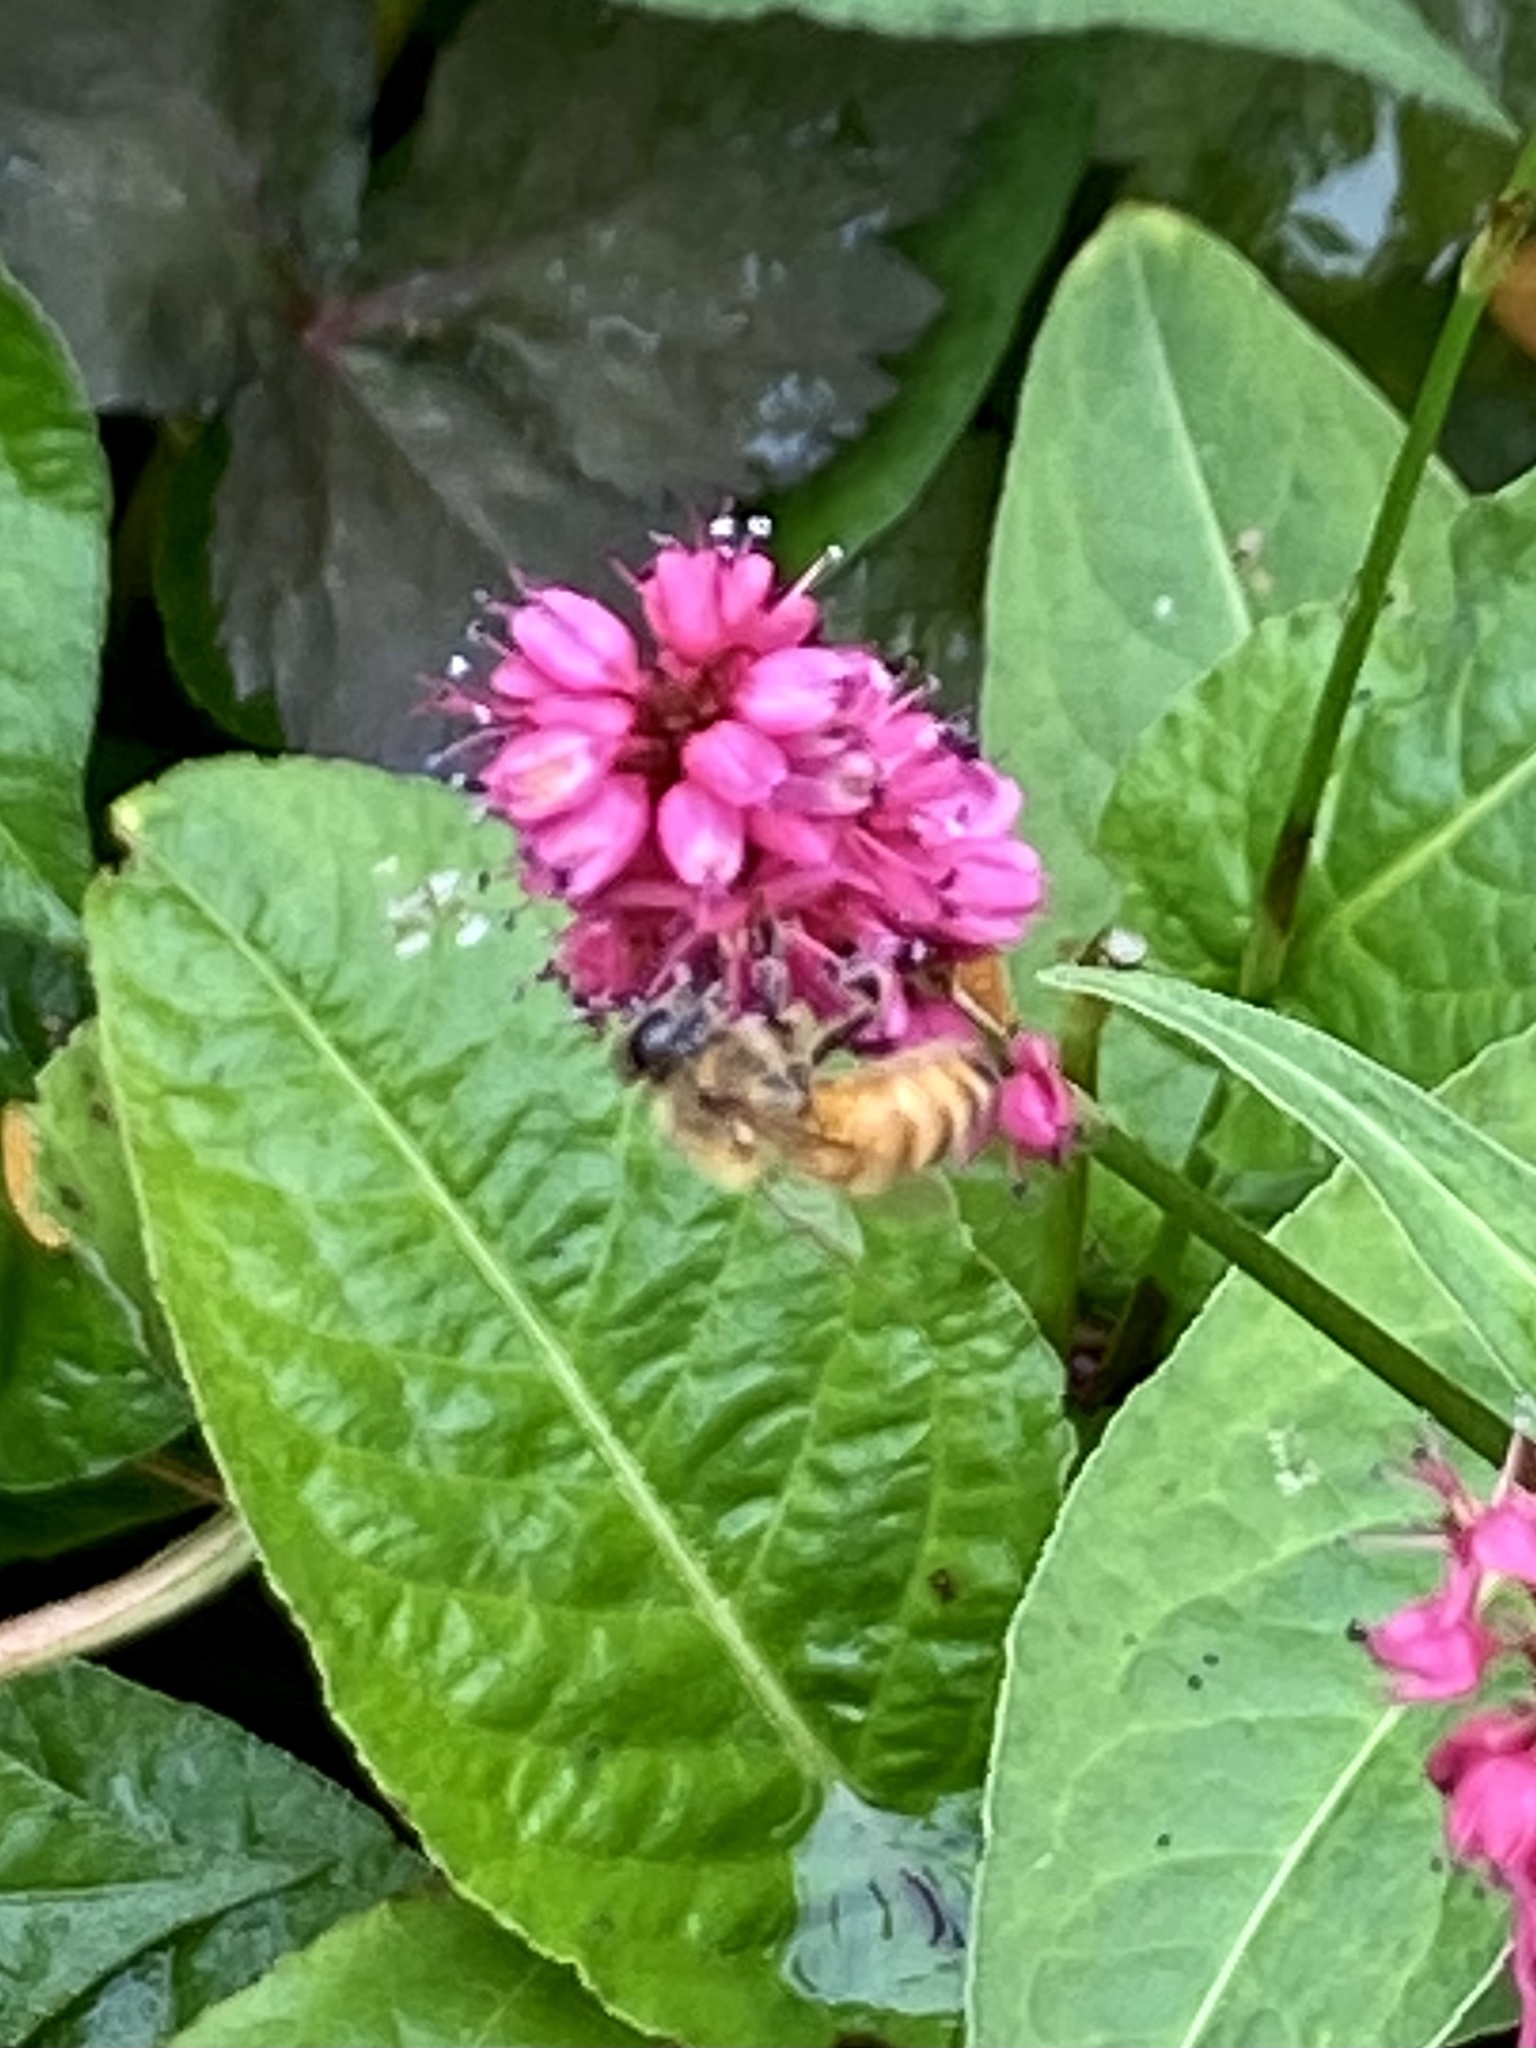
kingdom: Animalia
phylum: Arthropoda
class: Insecta
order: Hymenoptera
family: Apidae
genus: Apis
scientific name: Apis mellifera
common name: Honey bee
